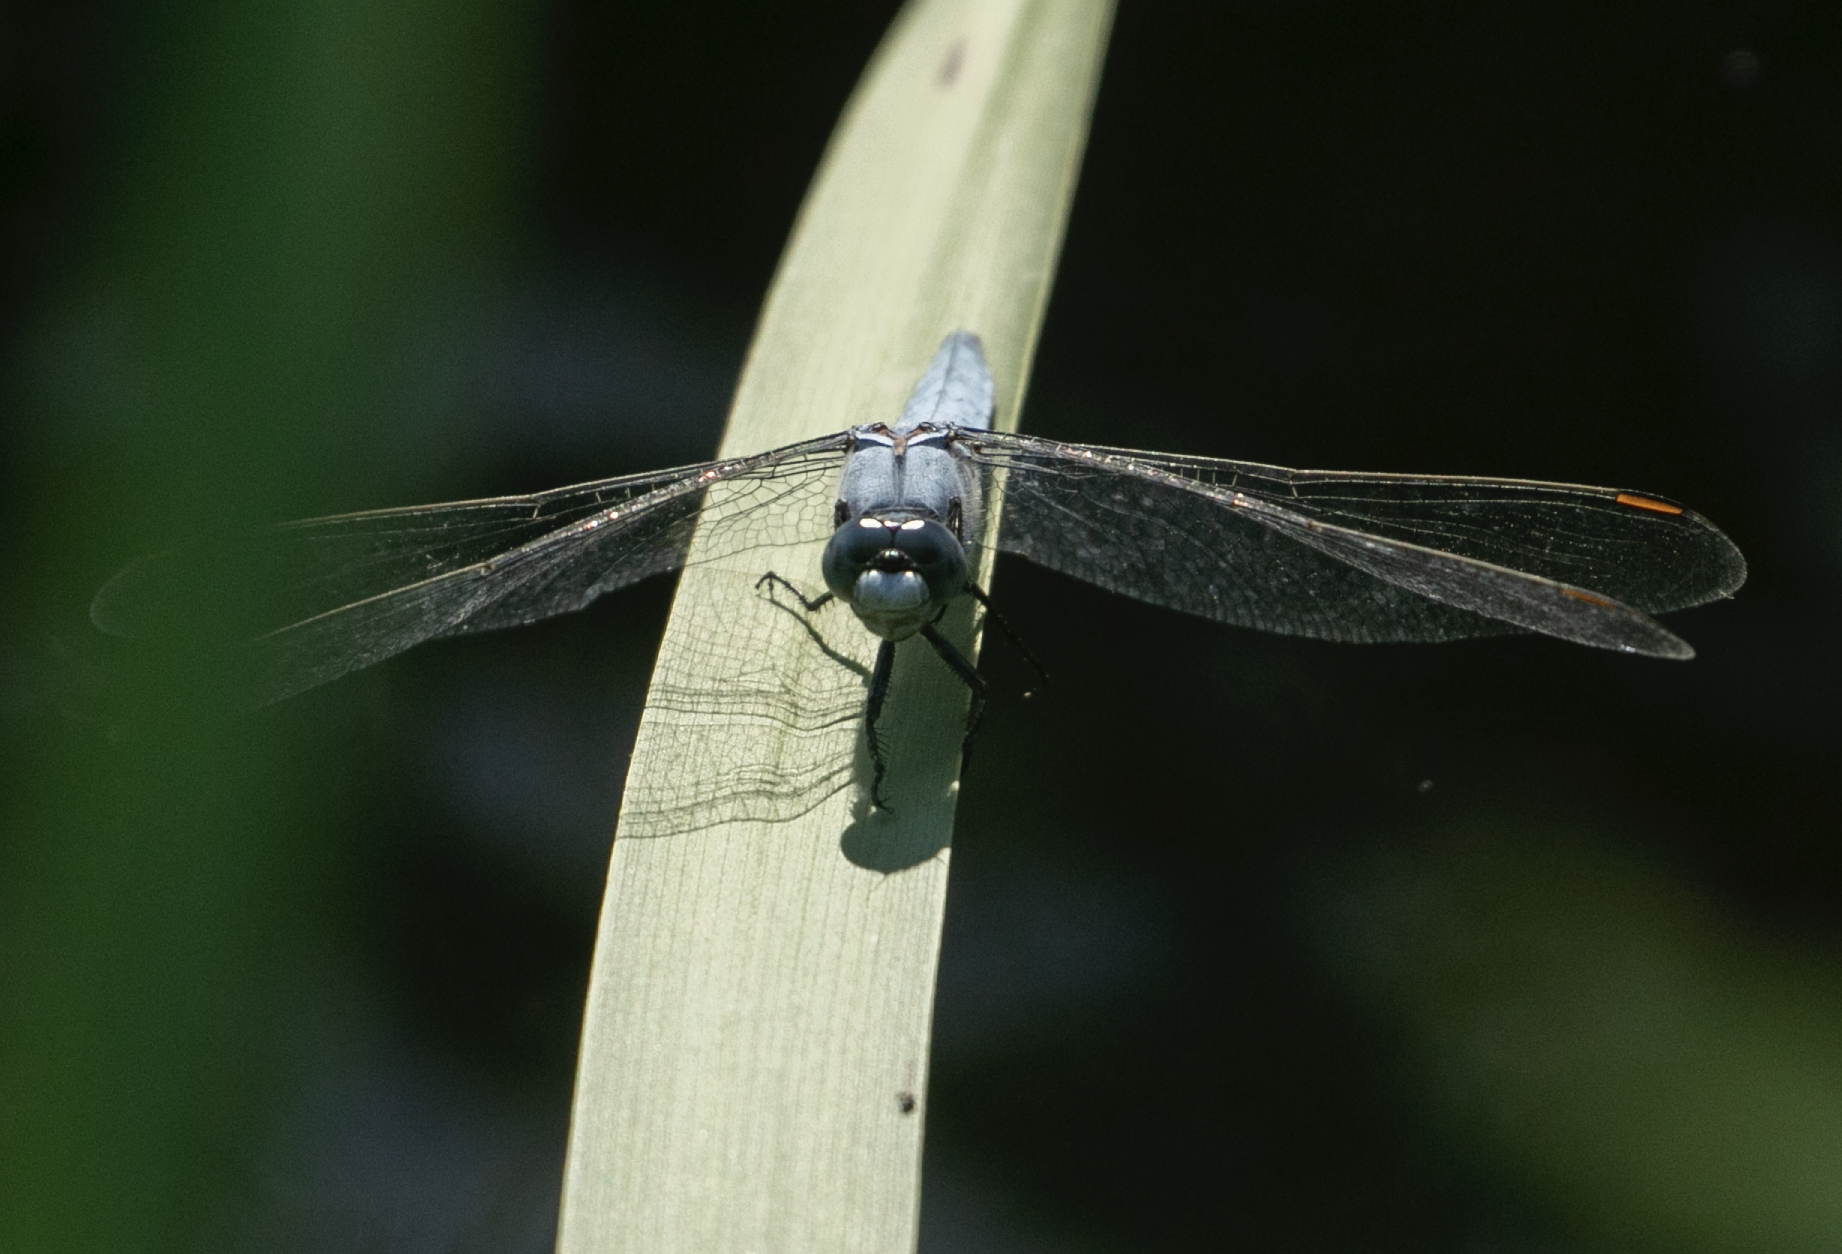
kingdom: Animalia
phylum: Arthropoda
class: Insecta
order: Odonata
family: Libellulidae
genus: Orthetrum
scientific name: Orthetrum brunneum
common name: Southern skimmer
